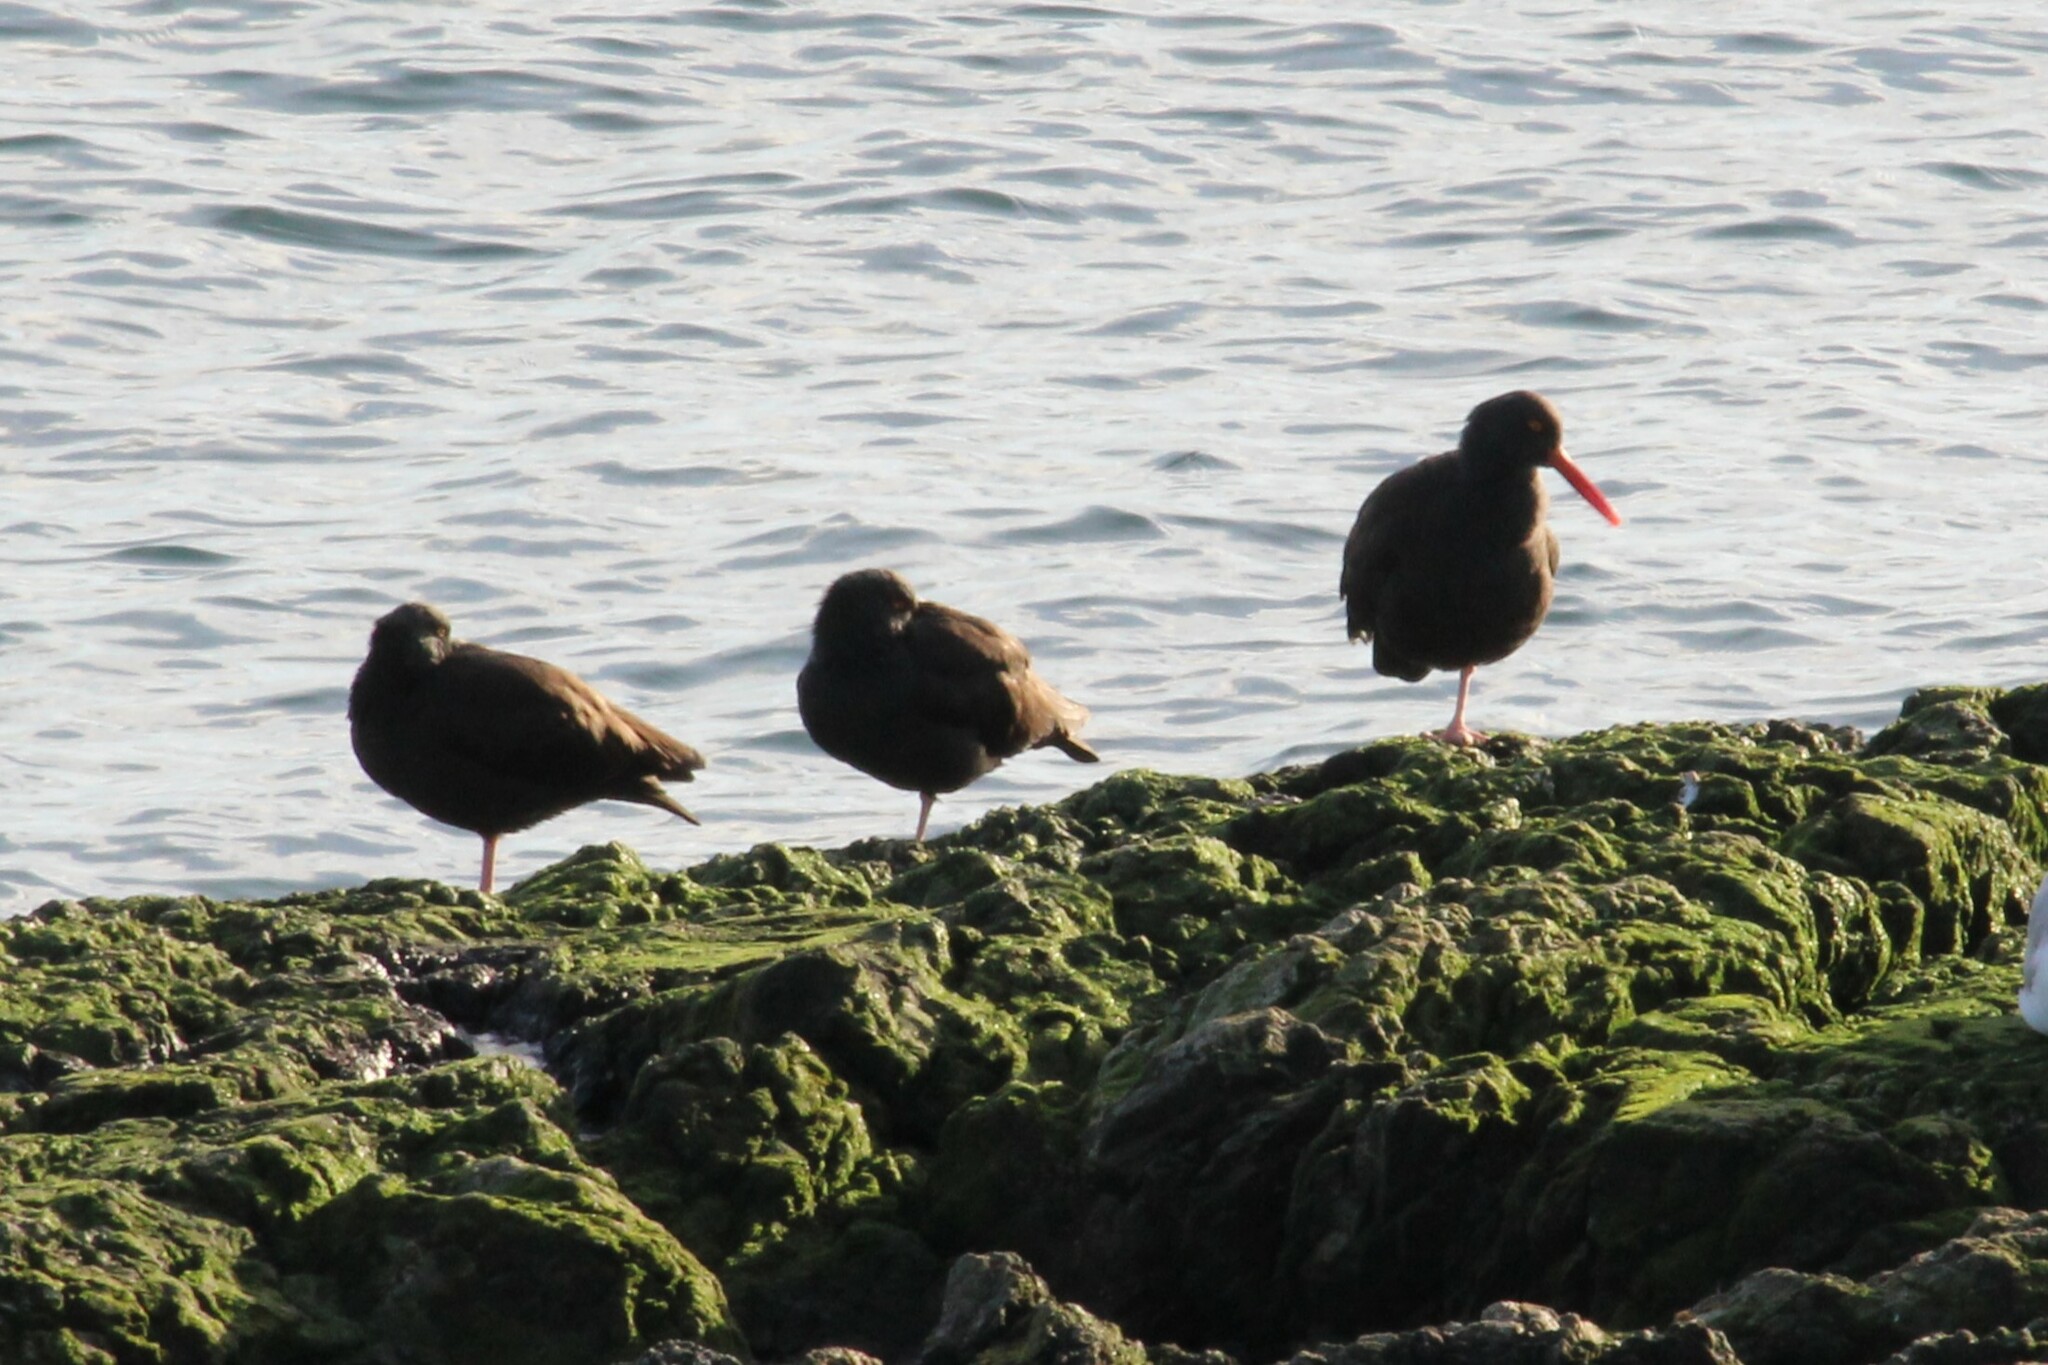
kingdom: Animalia
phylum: Chordata
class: Aves
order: Charadriiformes
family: Haematopodidae
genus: Haematopus
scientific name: Haematopus bachmani
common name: Black oystercatcher
